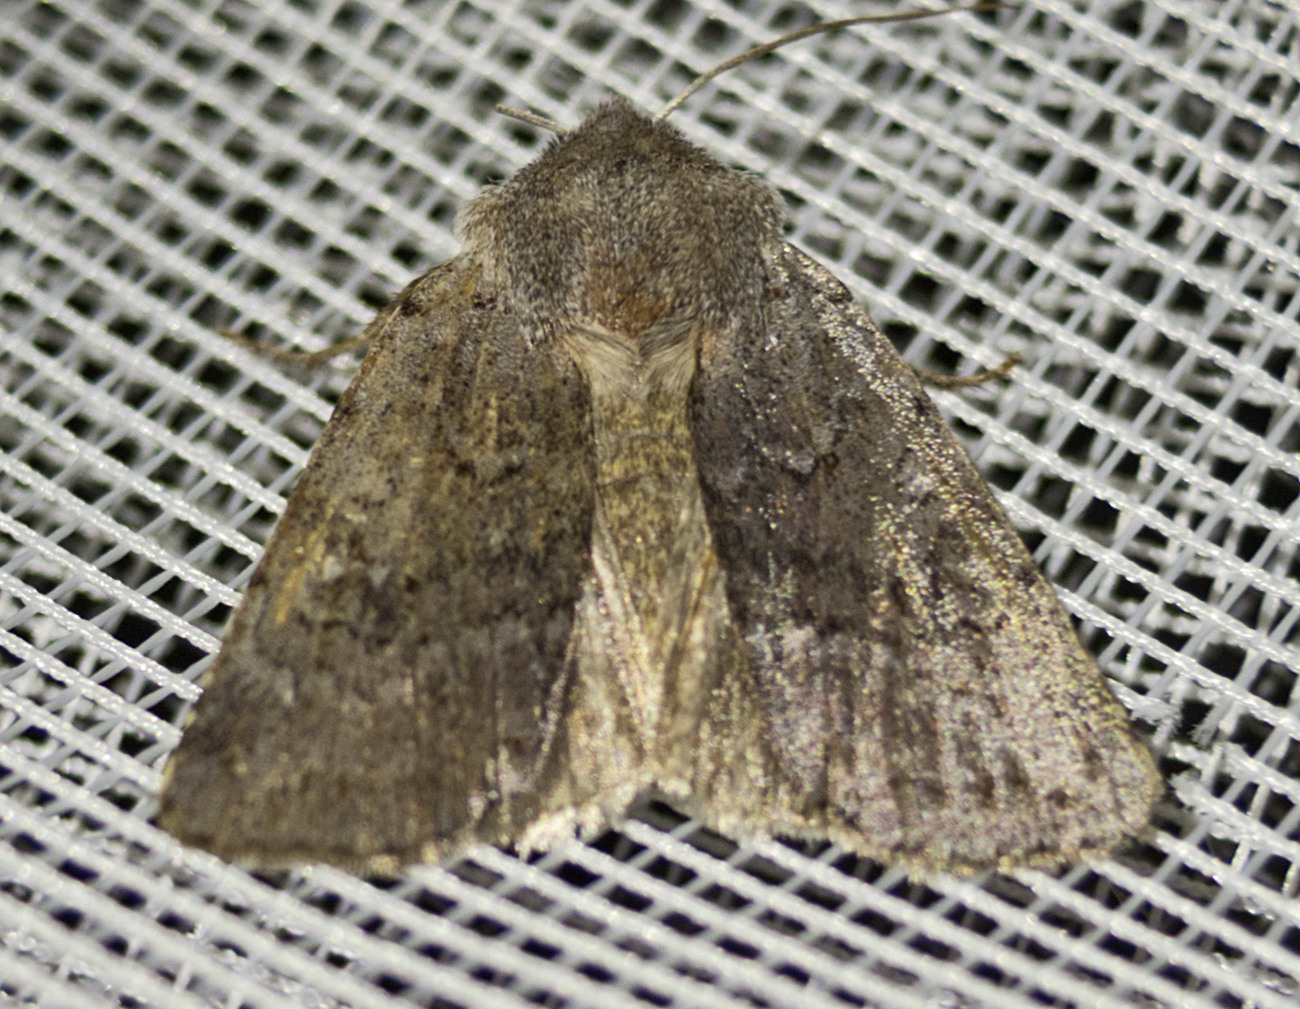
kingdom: Animalia
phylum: Arthropoda
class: Insecta
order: Lepidoptera
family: Noctuidae
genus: Cerastis
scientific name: Cerastis rubricosa
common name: Red chestnut
